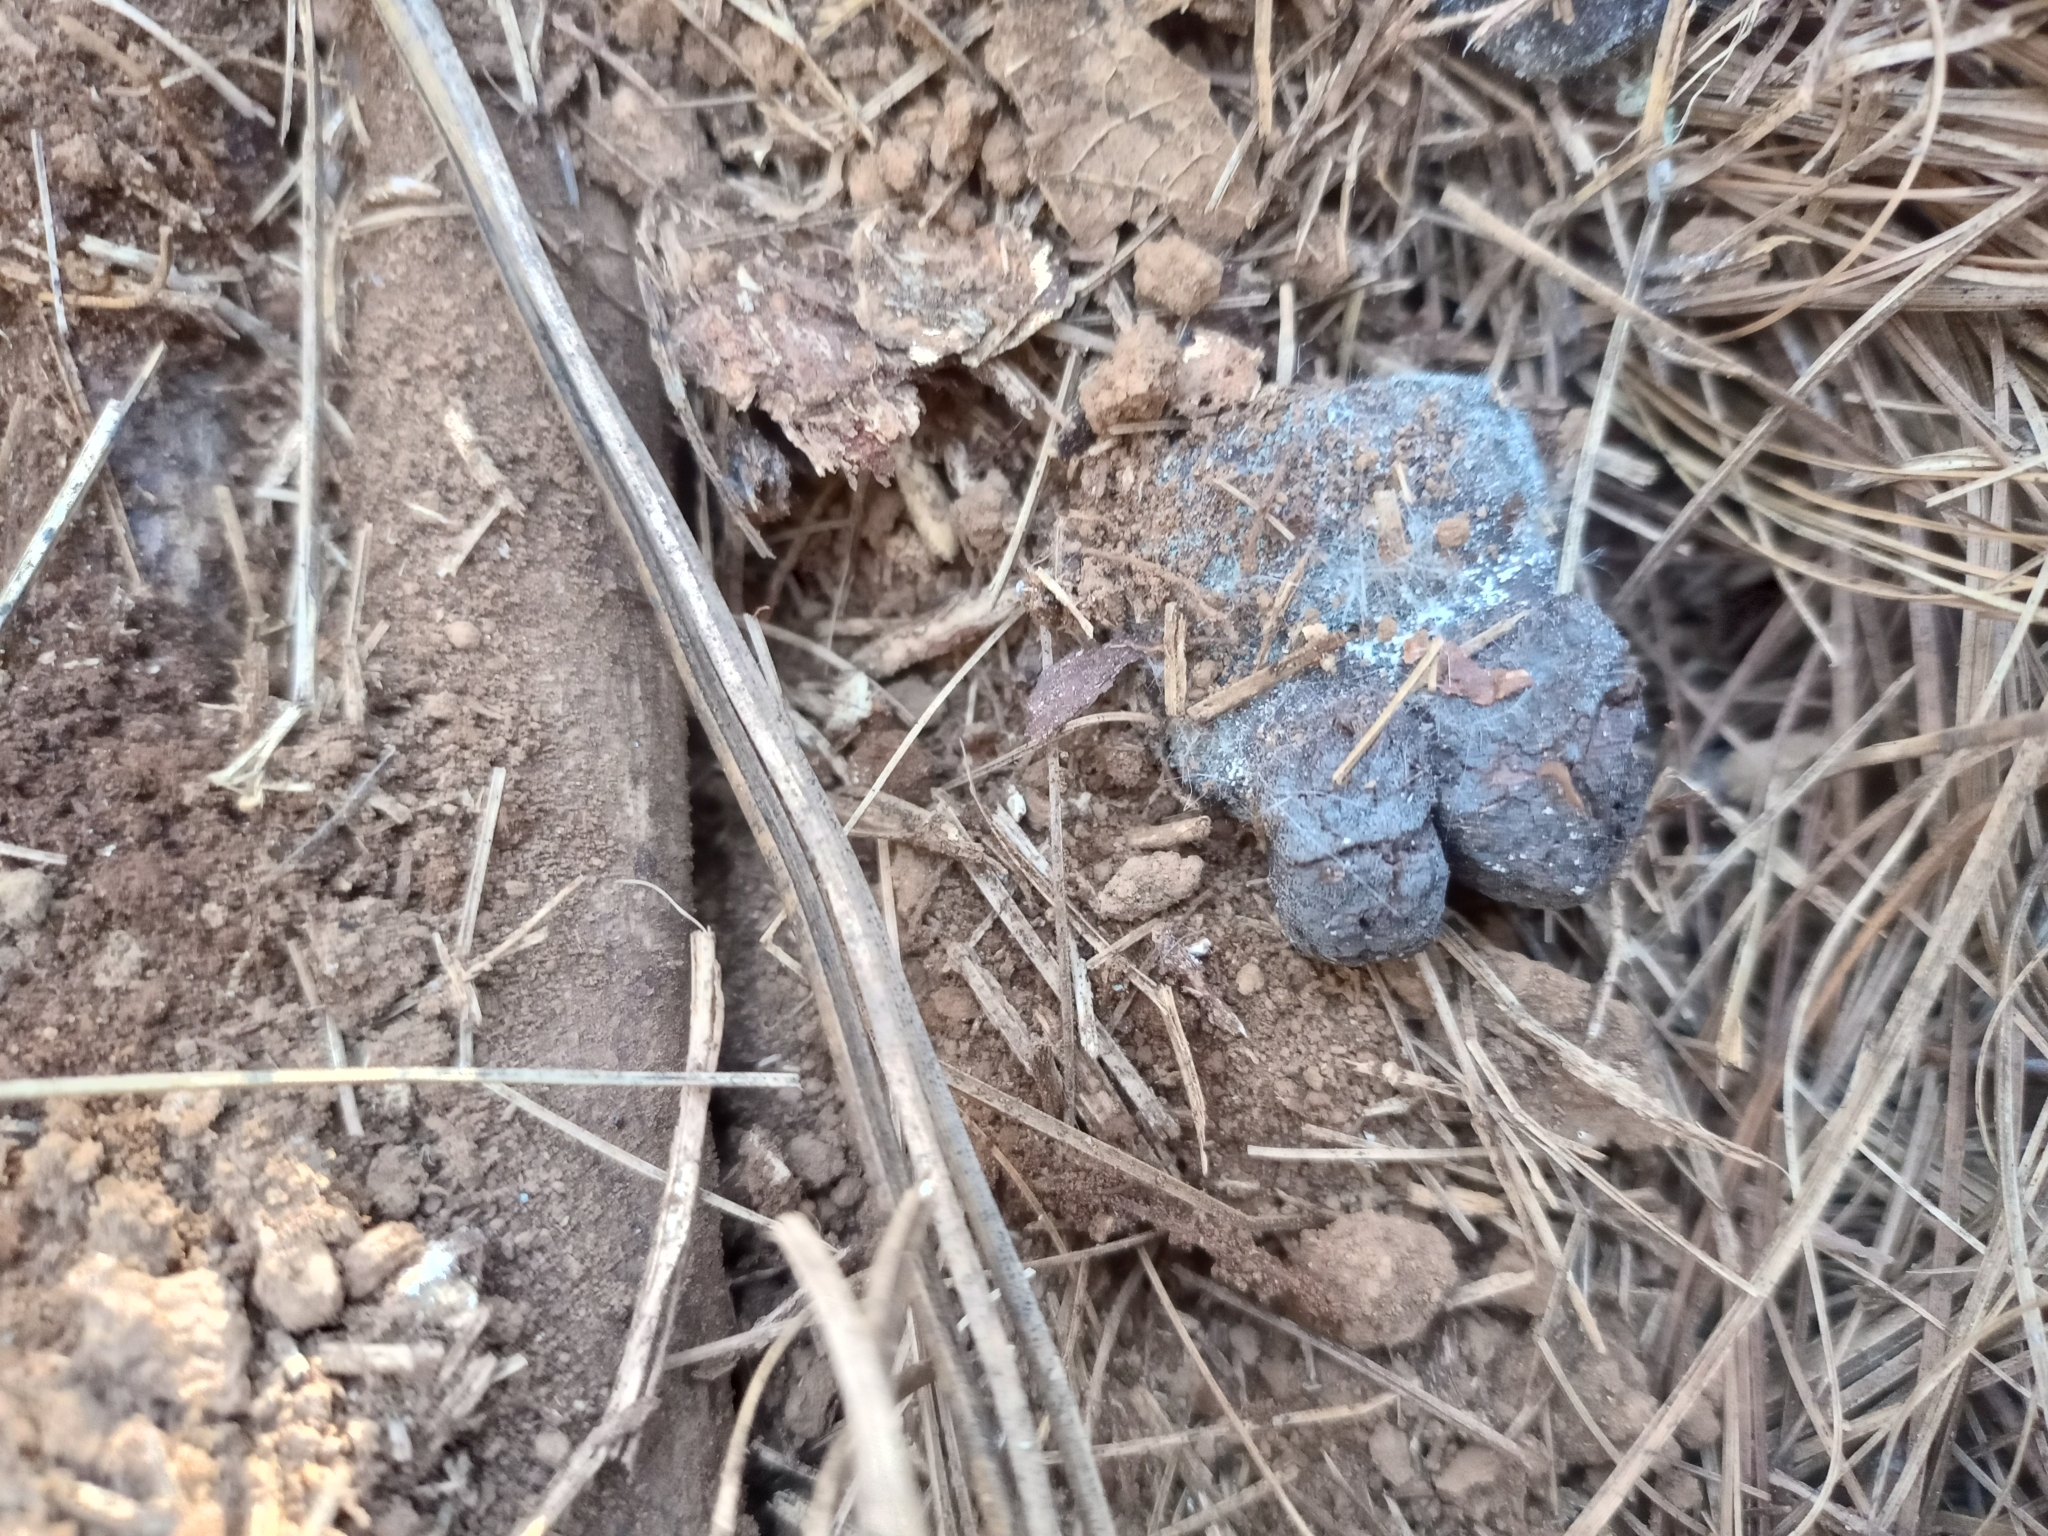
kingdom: Animalia
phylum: Chordata
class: Mammalia
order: Carnivora
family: Canidae
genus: Canis
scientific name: Canis latrans
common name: Coyote
